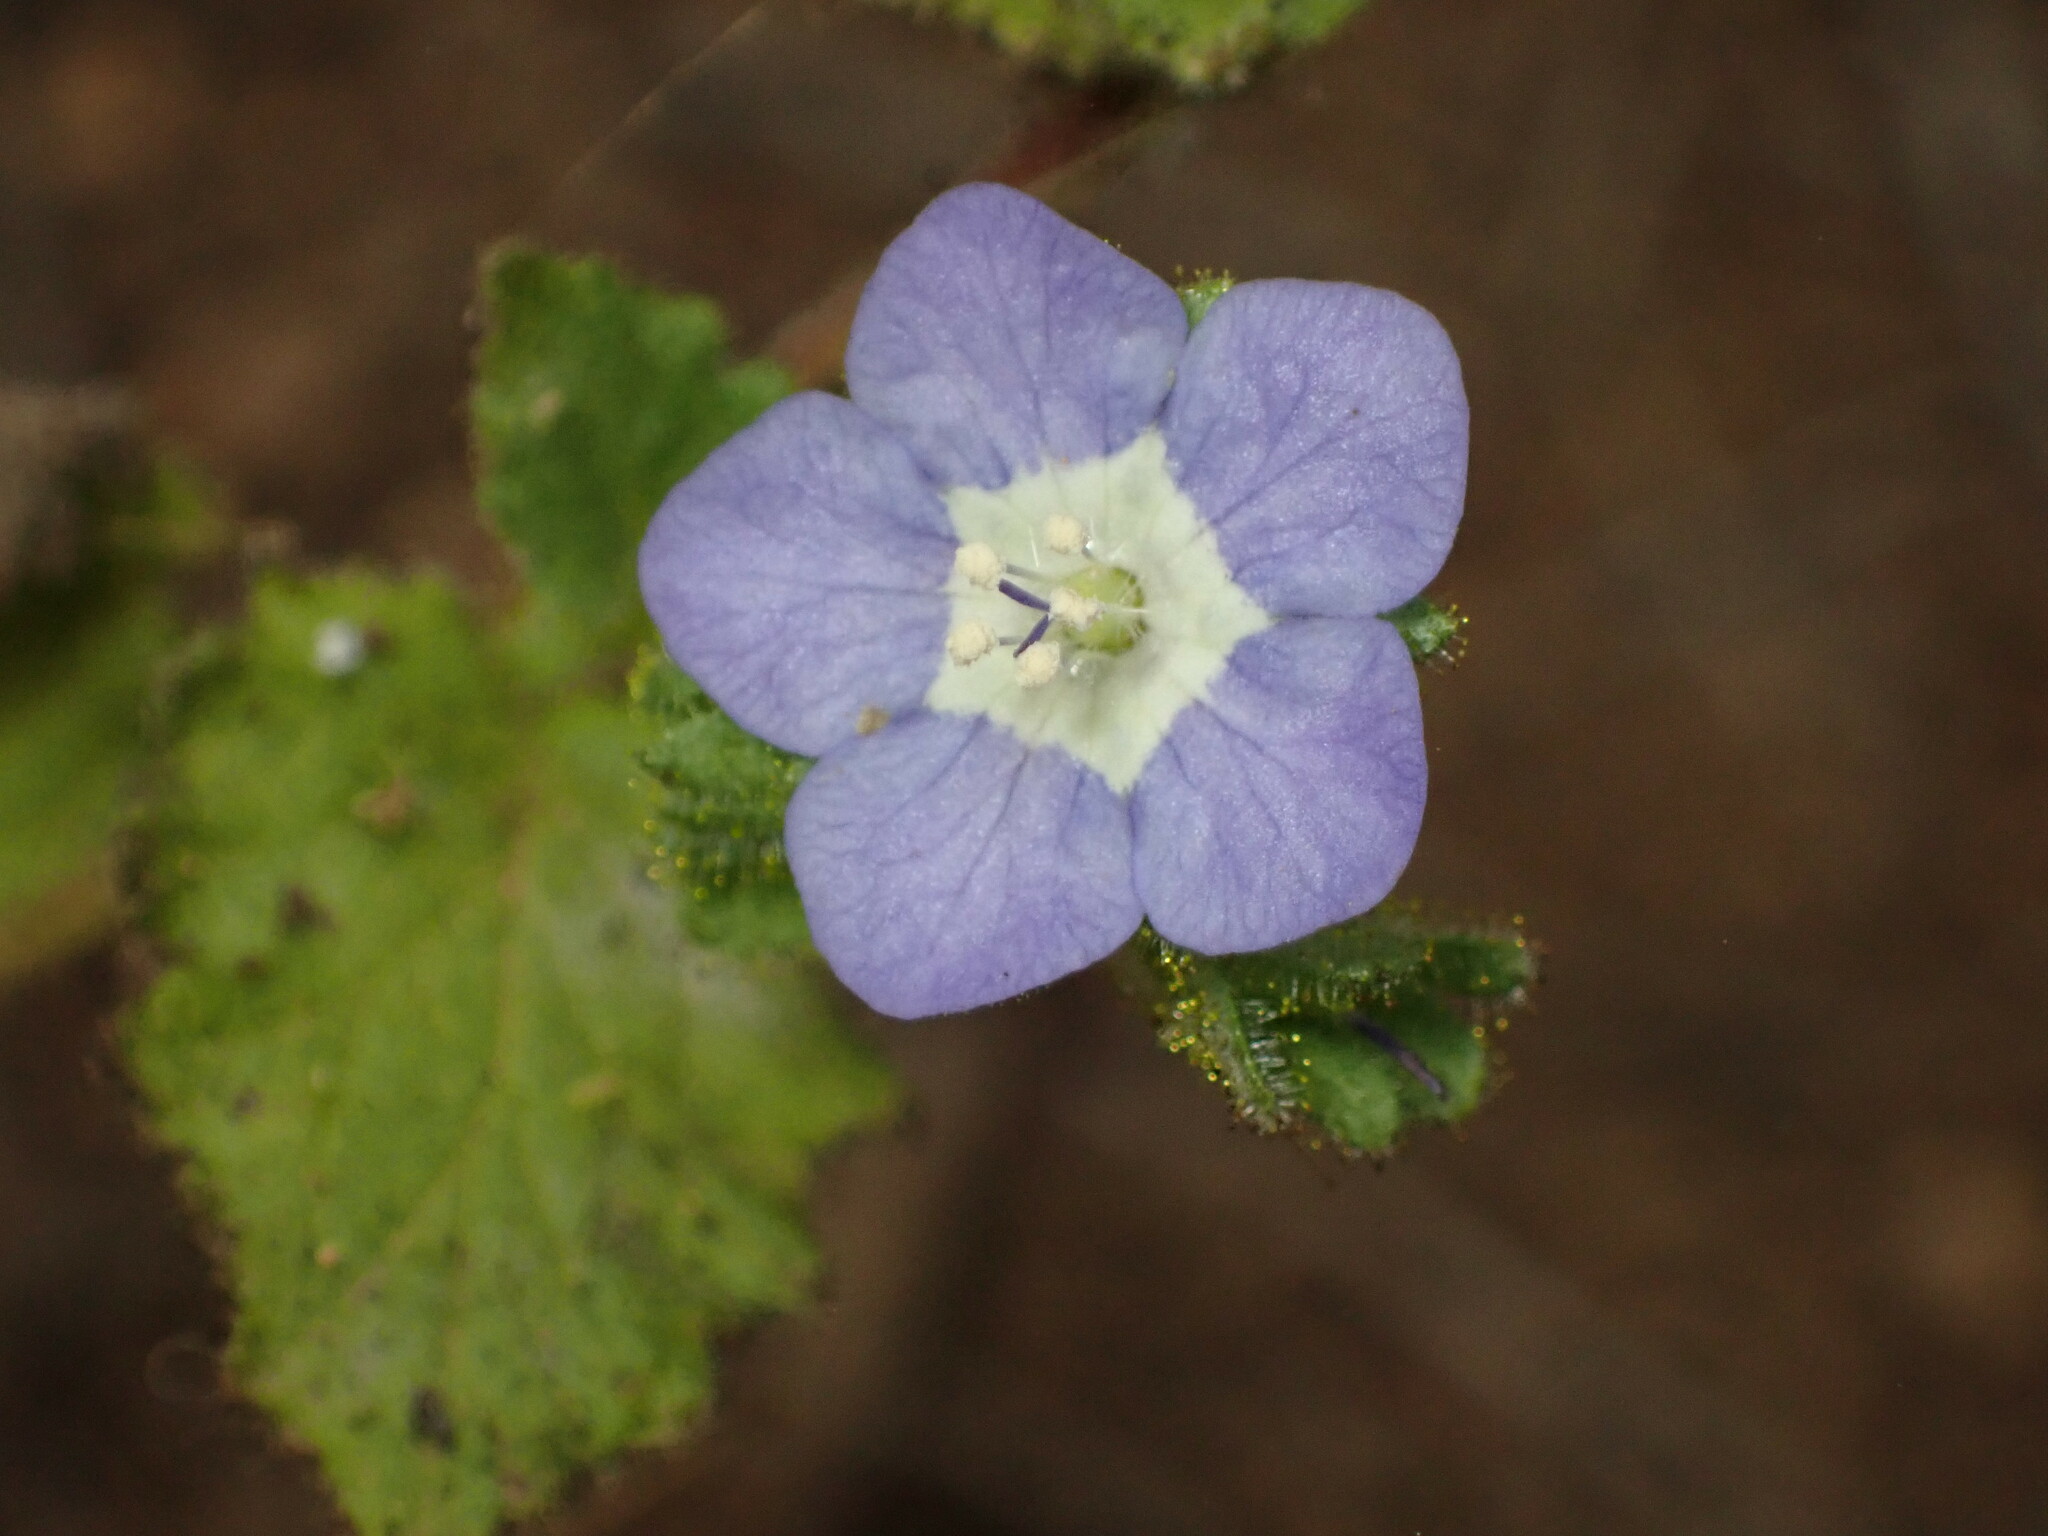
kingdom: Plantae
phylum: Tracheophyta
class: Magnoliopsida
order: Boraginales
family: Hydrophyllaceae
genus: Phacelia
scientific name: Phacelia viscida
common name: Sticky phacelia
